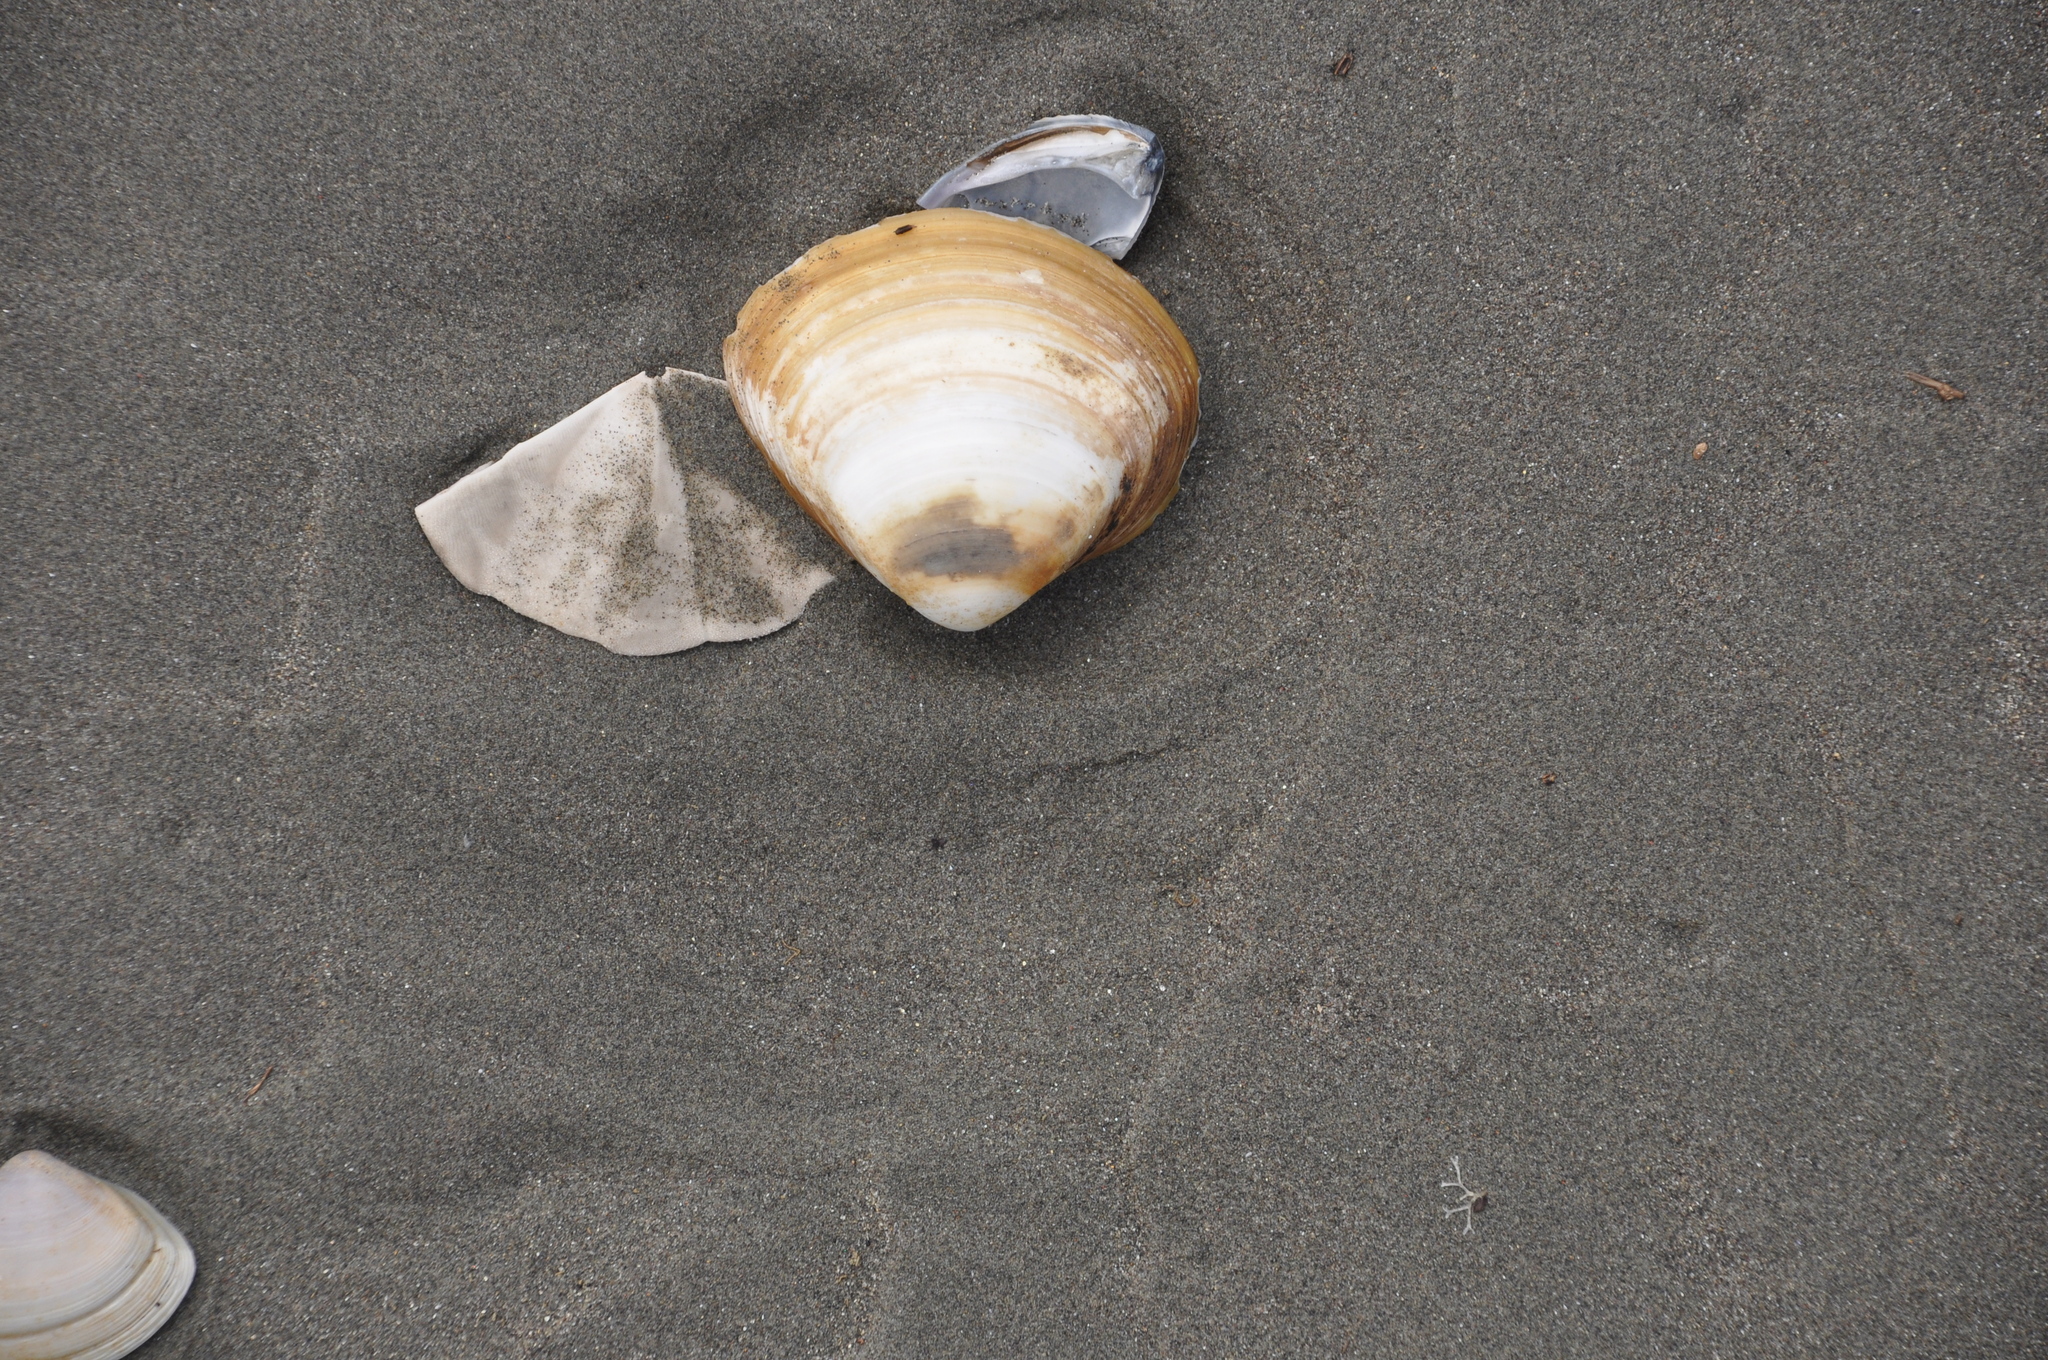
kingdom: Animalia
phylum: Mollusca
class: Bivalvia
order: Venerida
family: Mactridae
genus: Spisula
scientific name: Spisula discors
